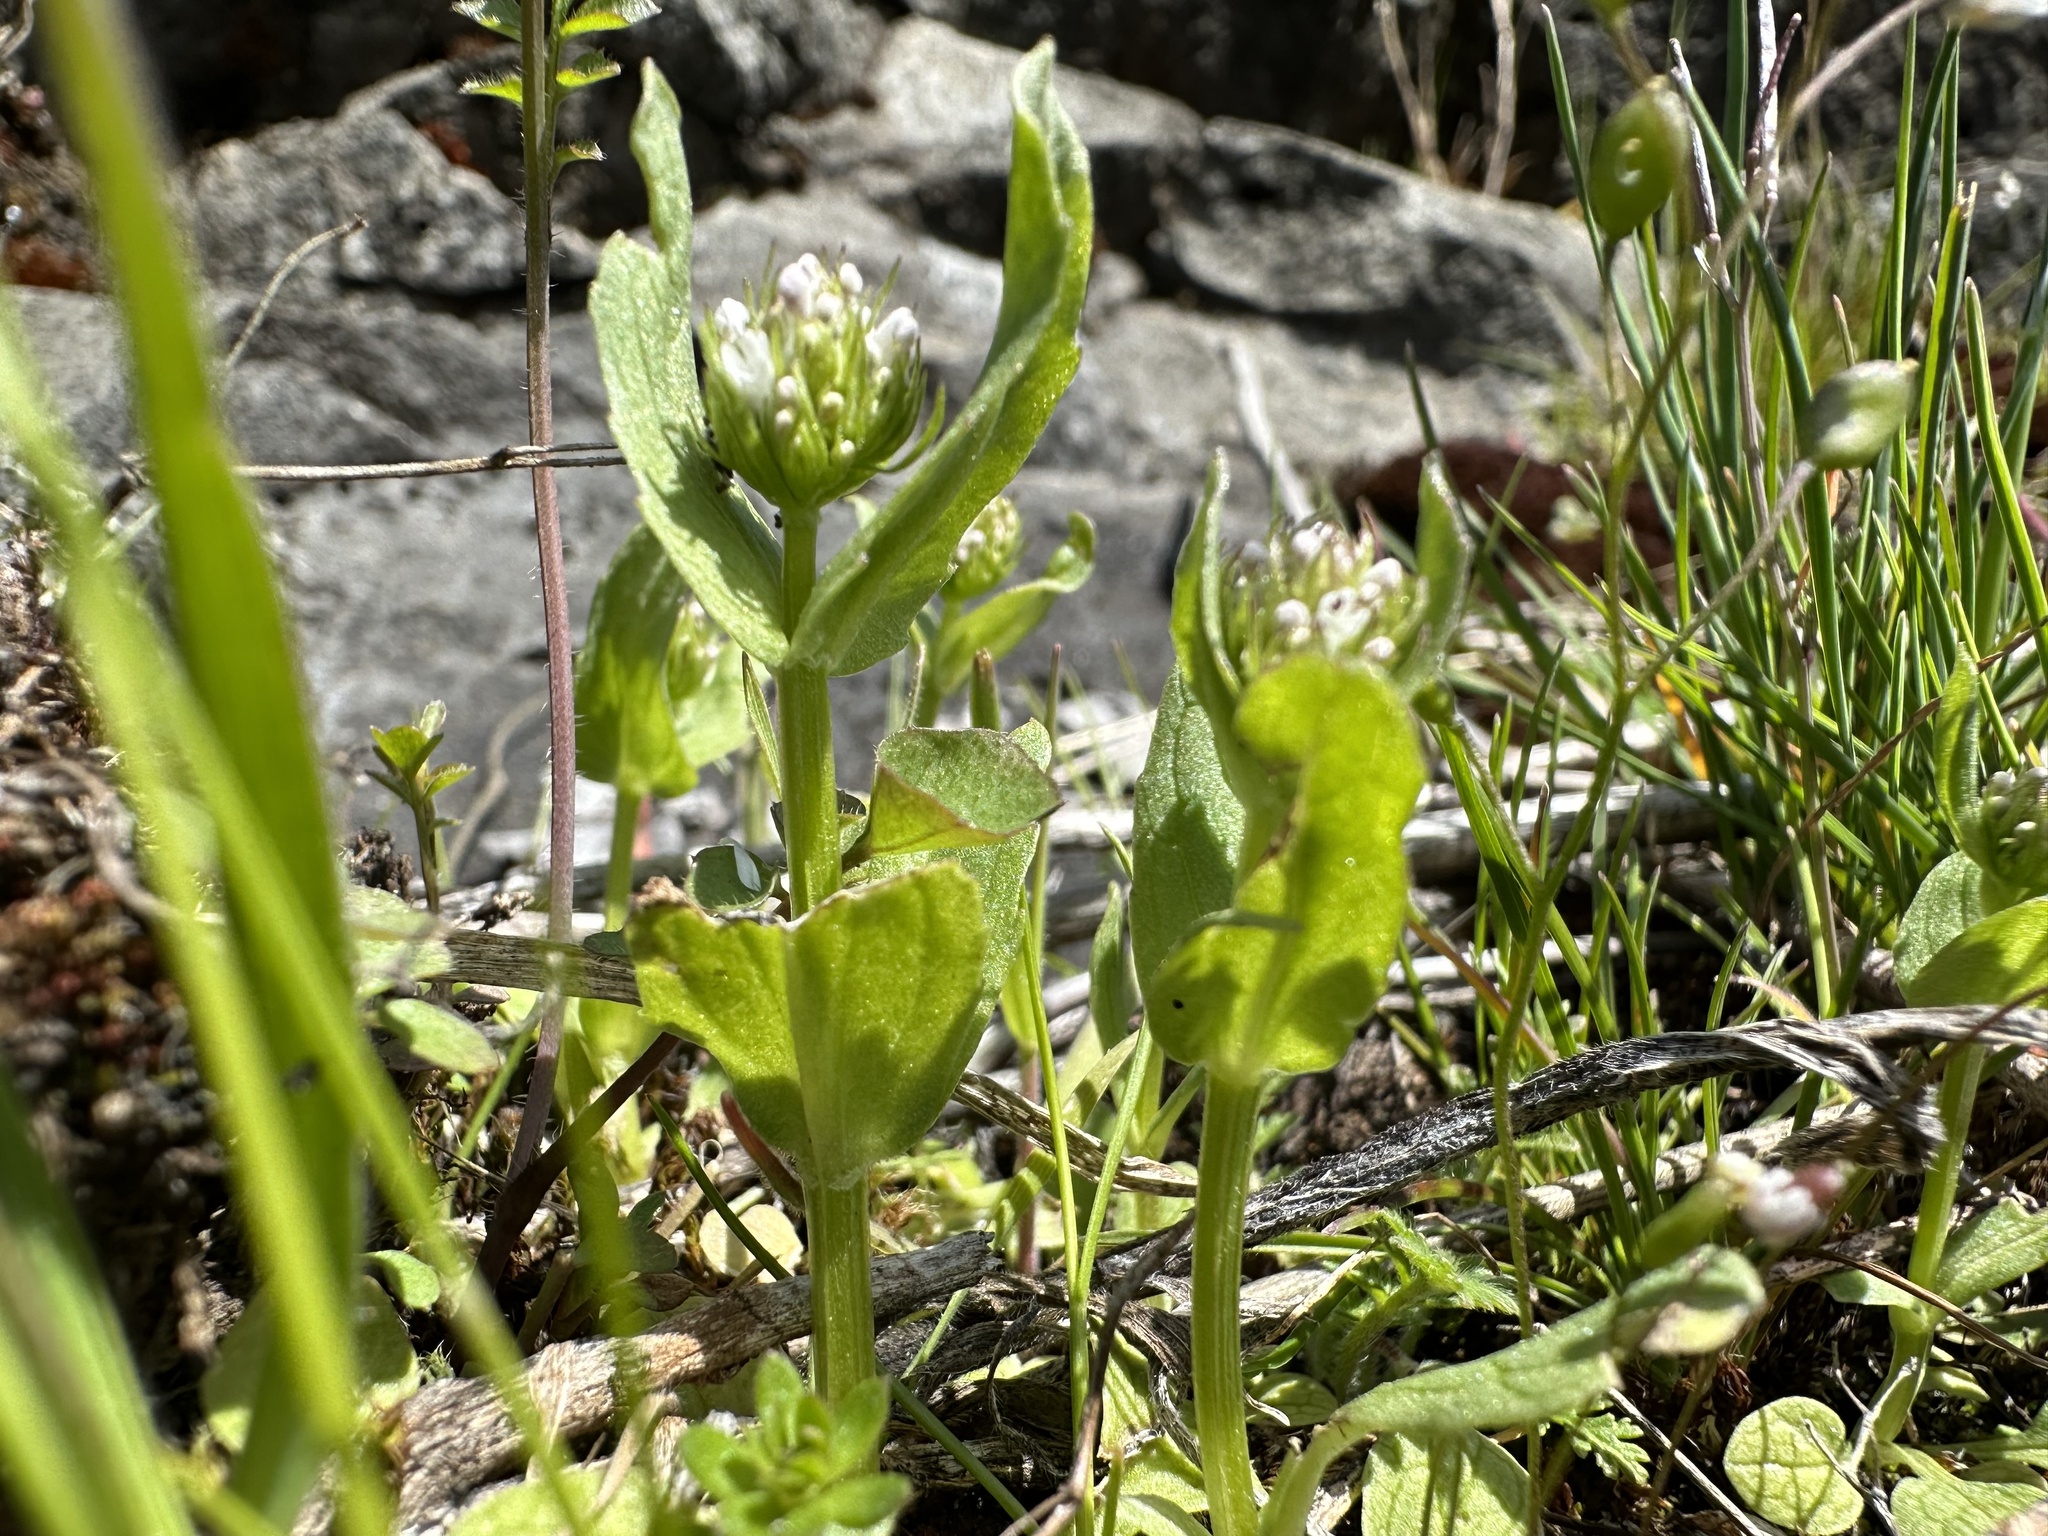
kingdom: Plantae
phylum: Tracheophyta
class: Magnoliopsida
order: Dipsacales
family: Caprifoliaceae
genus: Plectritis
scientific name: Plectritis macroptera
